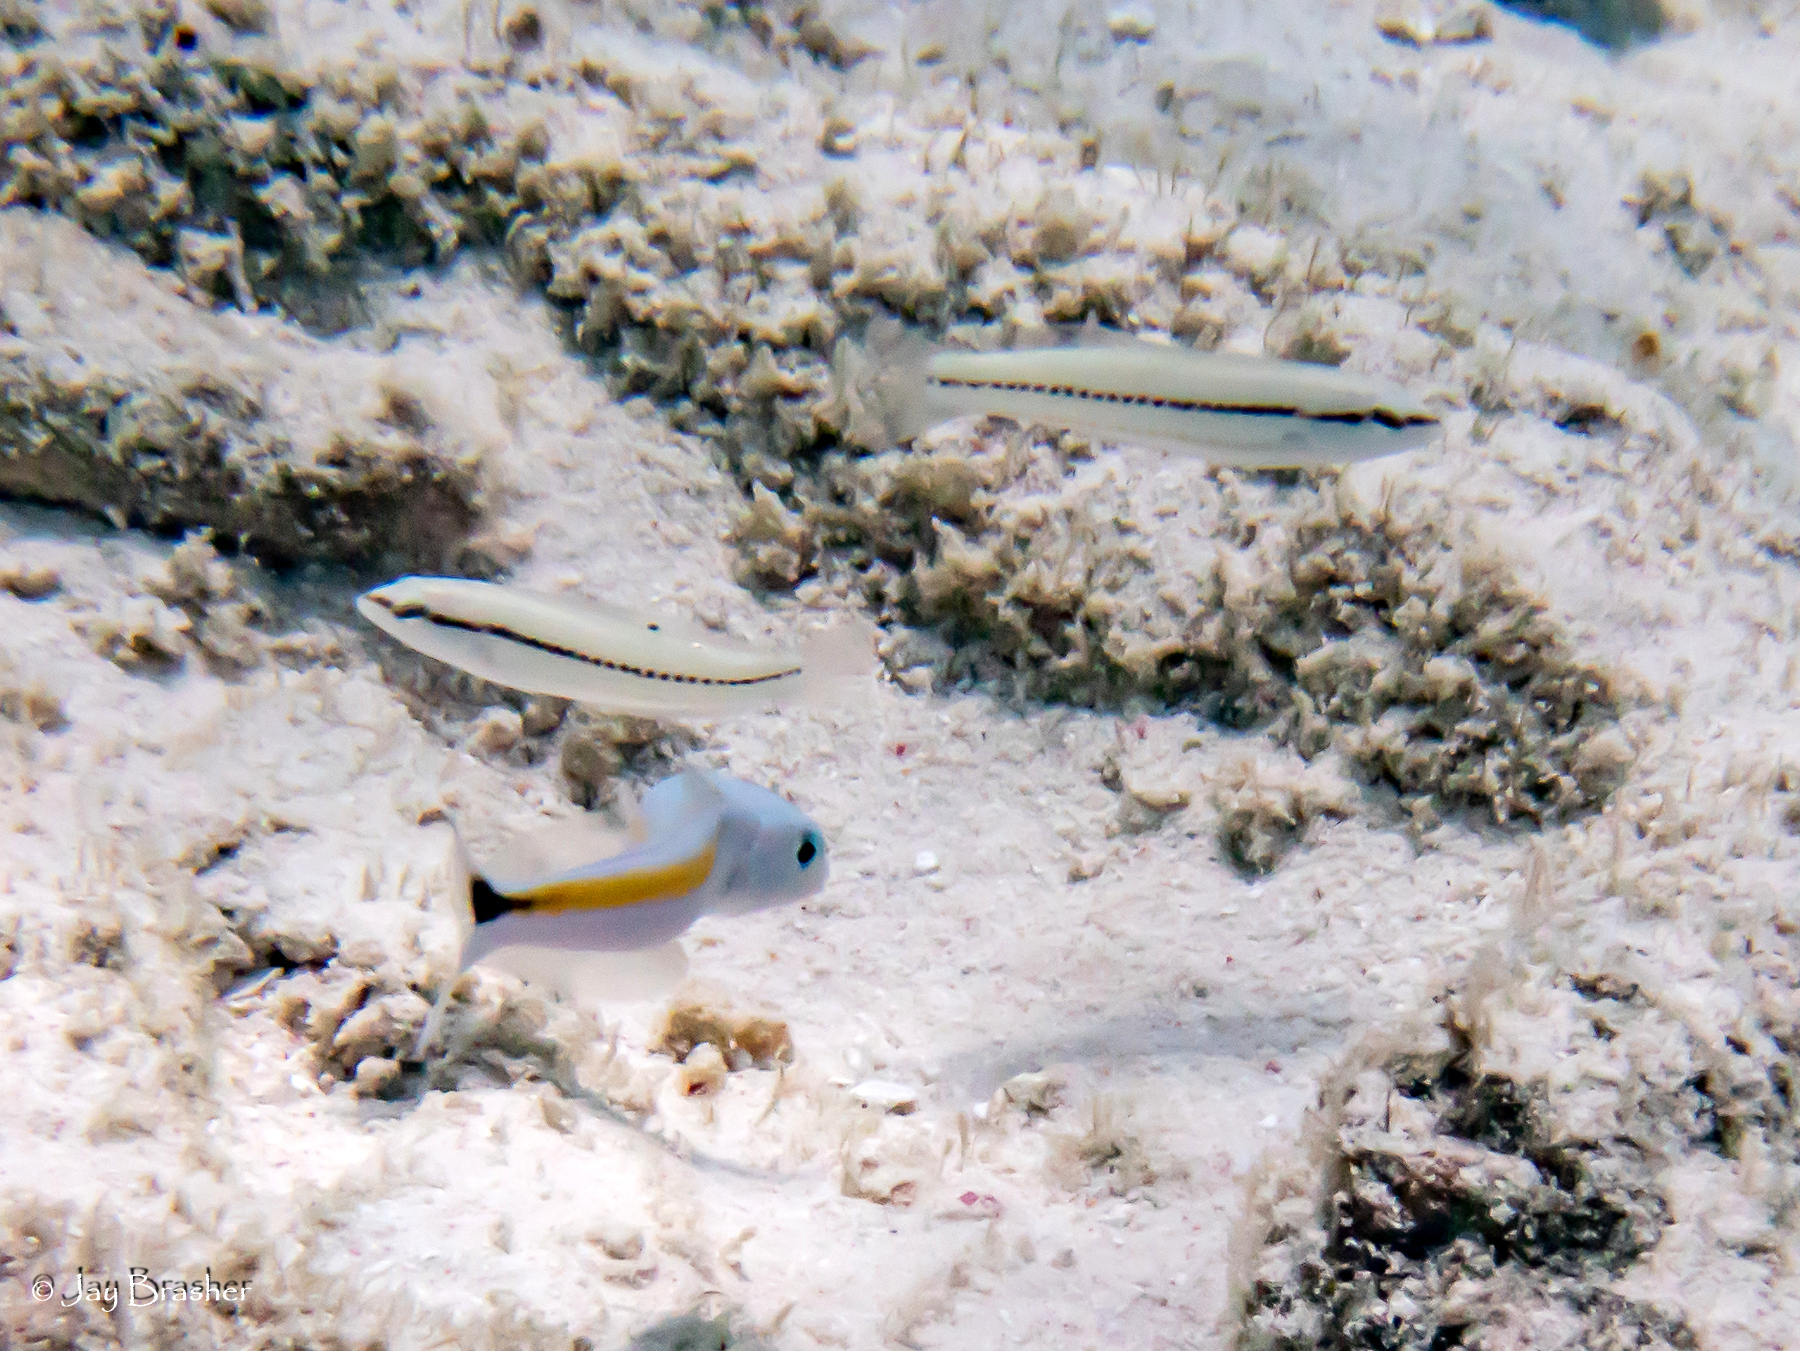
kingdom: Animalia
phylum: Chordata
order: Perciformes
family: Malacanthidae
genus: Malacanthus
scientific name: Malacanthus plumieri
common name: Sand tilefish
